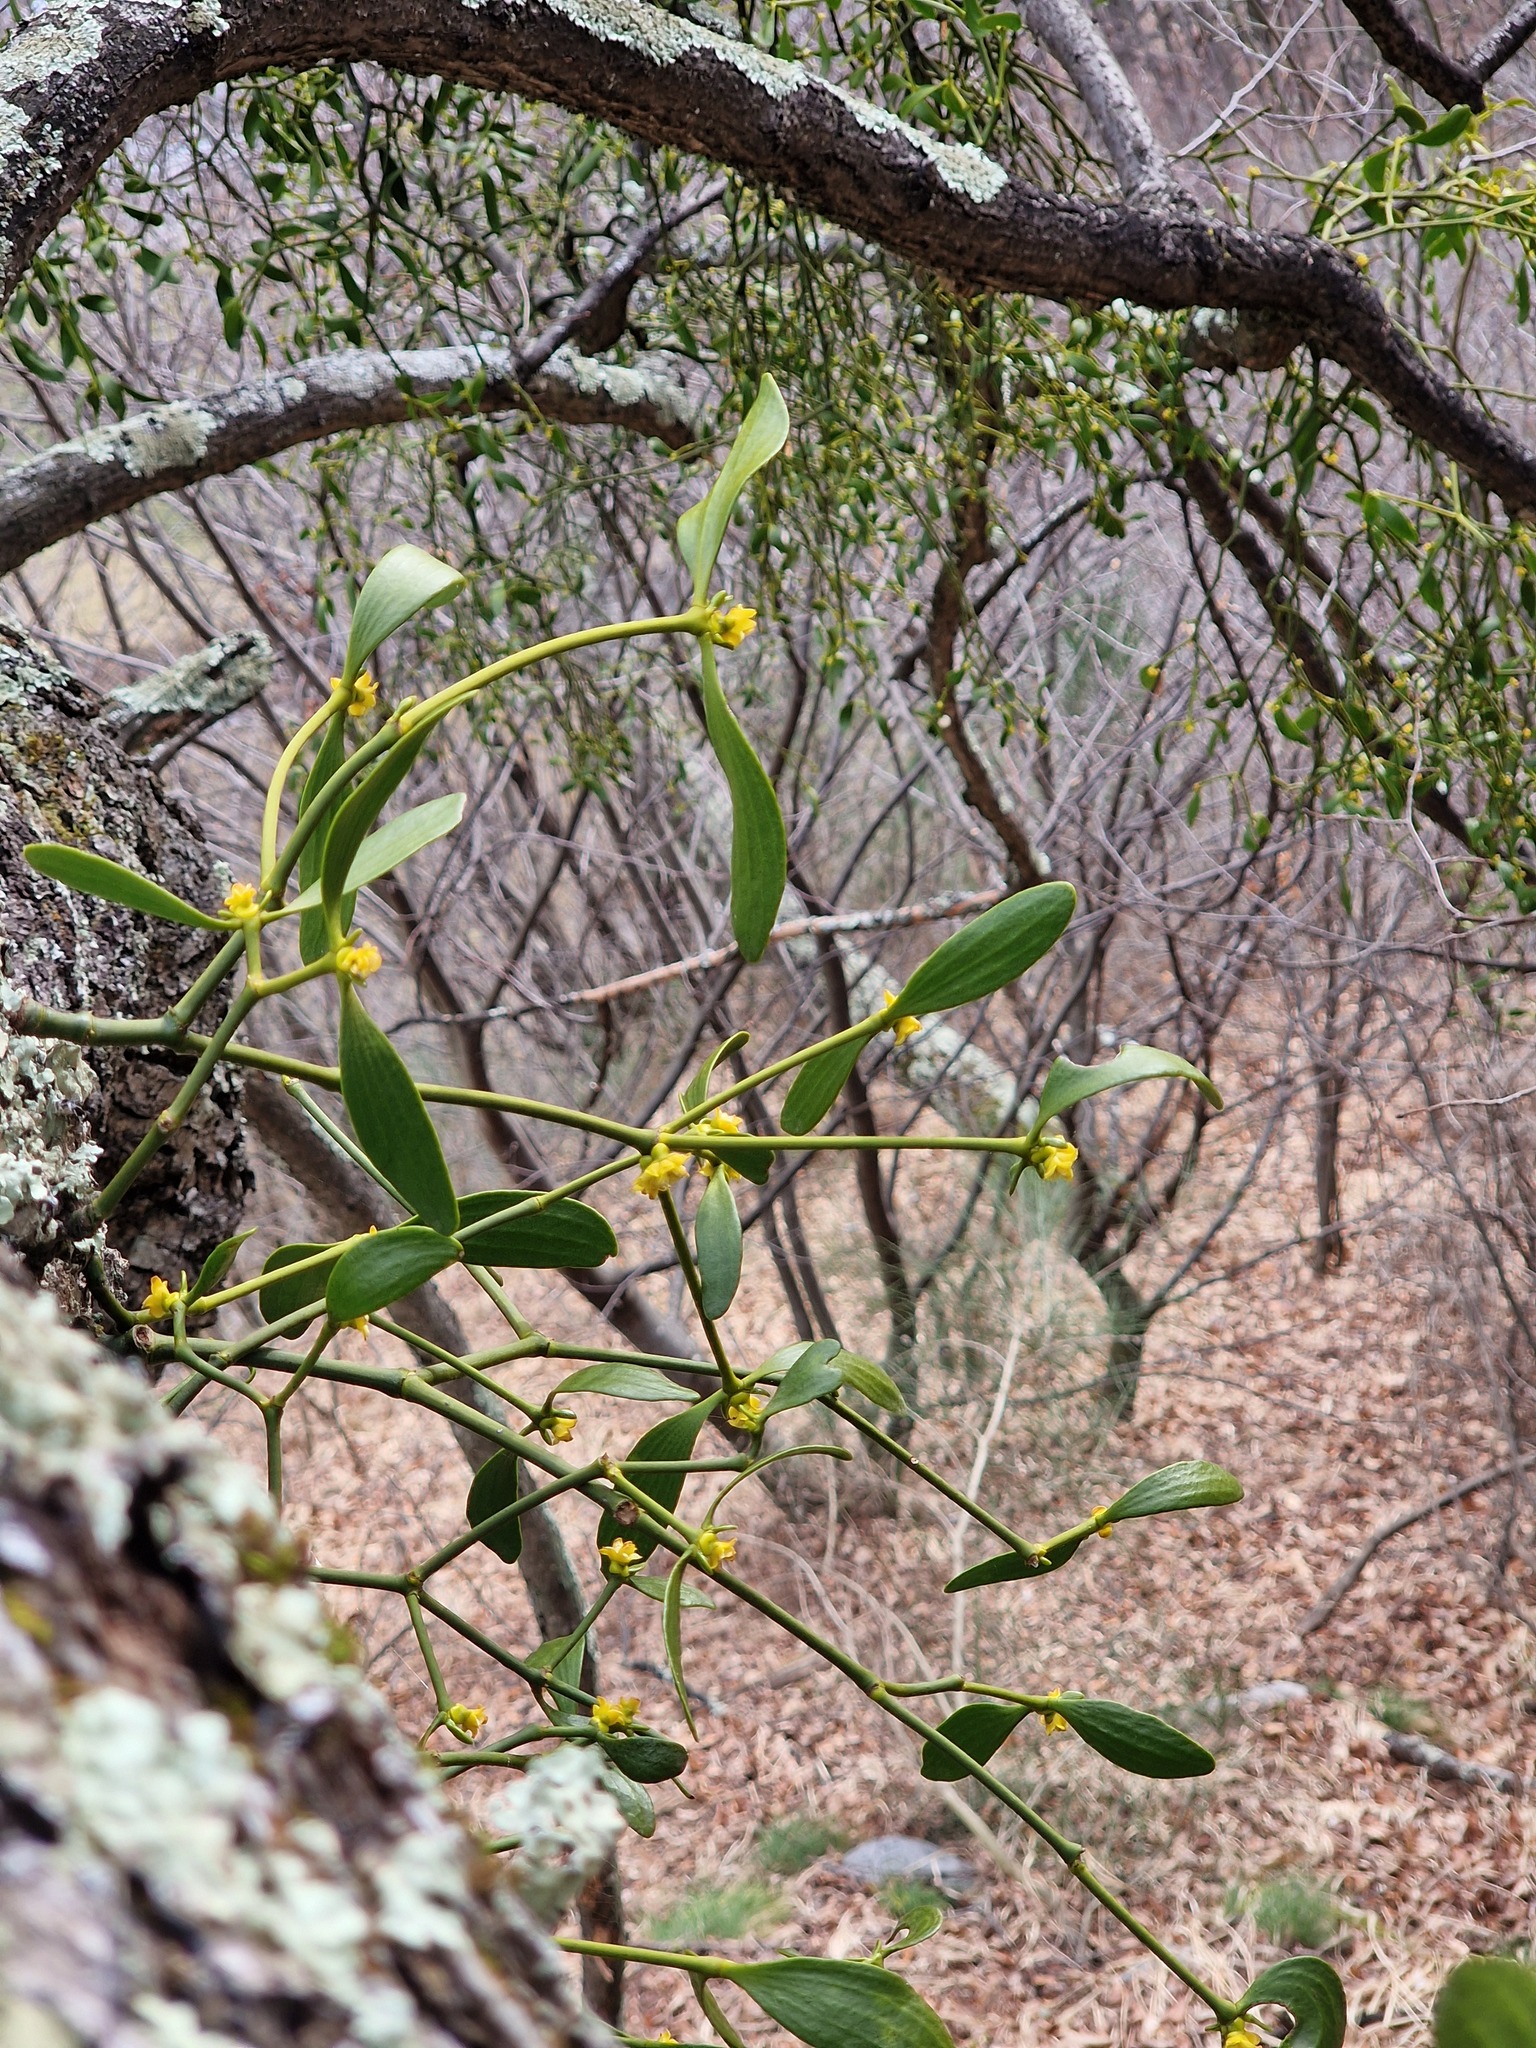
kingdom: Plantae
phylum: Tracheophyta
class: Magnoliopsida
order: Santalales
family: Viscaceae
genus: Viscum
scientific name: Viscum album
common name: Mistletoe
